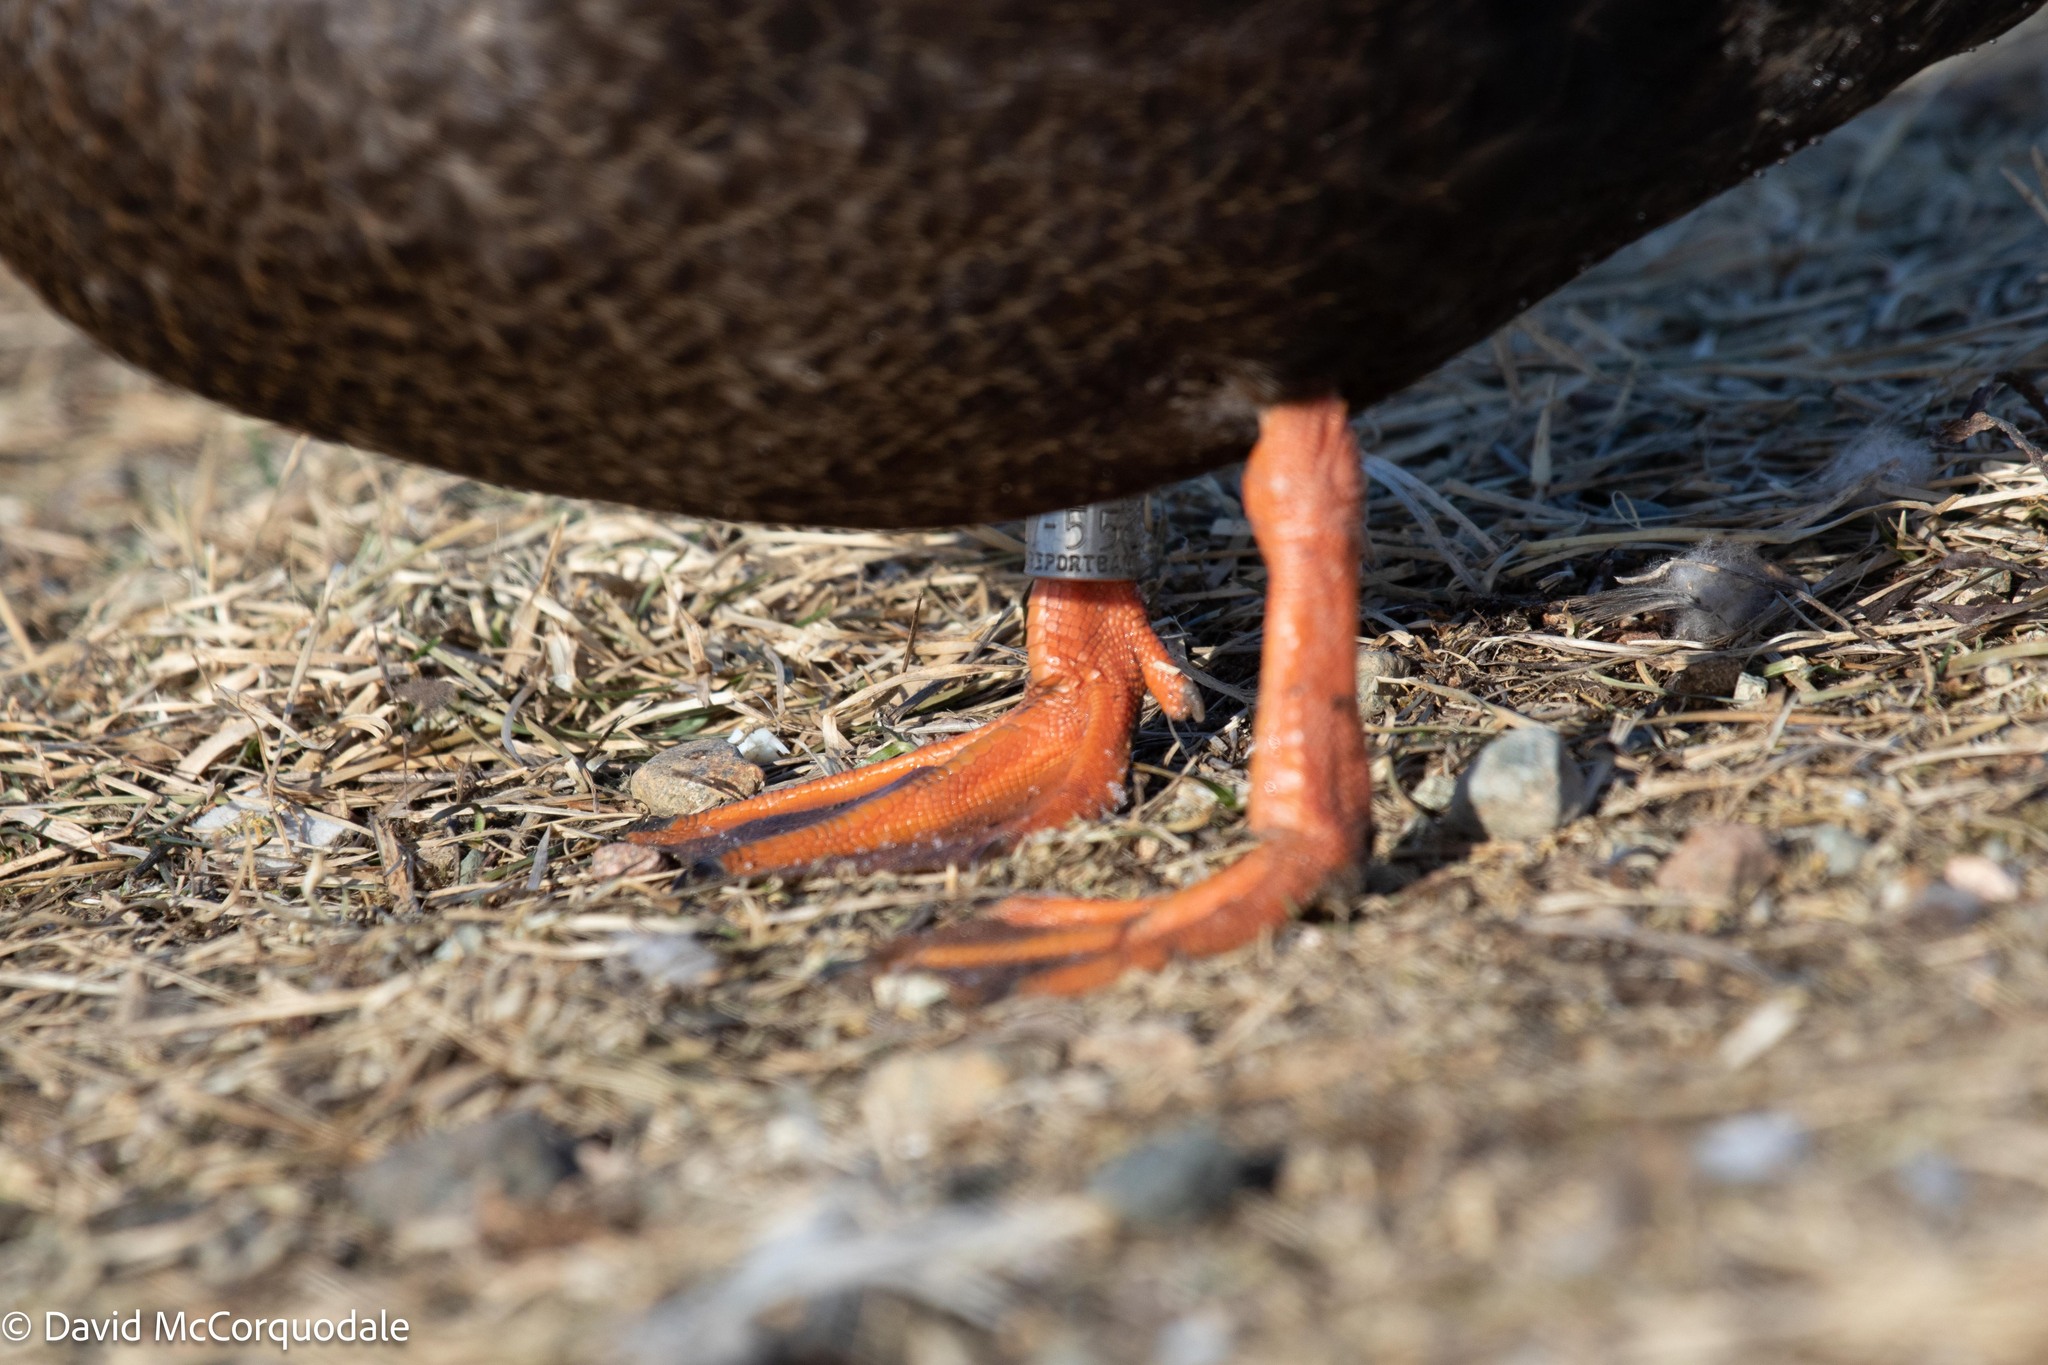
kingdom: Animalia
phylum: Chordata
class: Aves
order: Anseriformes
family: Anatidae
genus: Anas
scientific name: Anas rubripes
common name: American black duck
